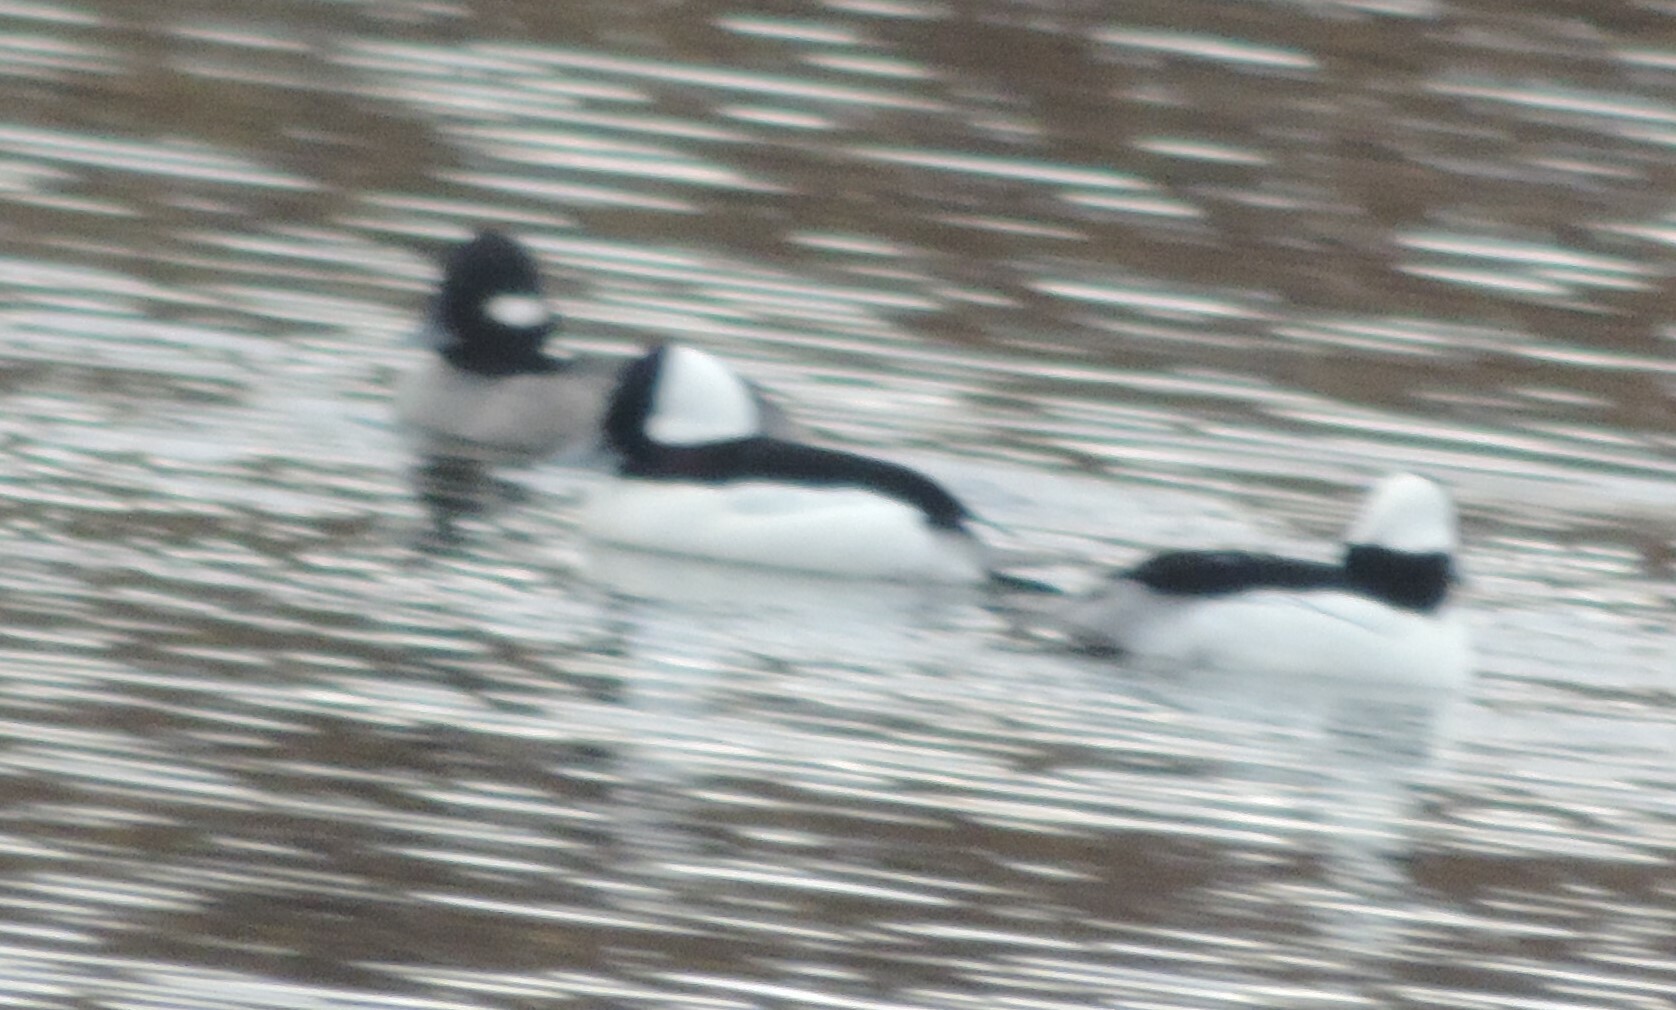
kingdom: Animalia
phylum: Chordata
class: Aves
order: Anseriformes
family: Anatidae
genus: Bucephala
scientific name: Bucephala albeola
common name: Bufflehead
